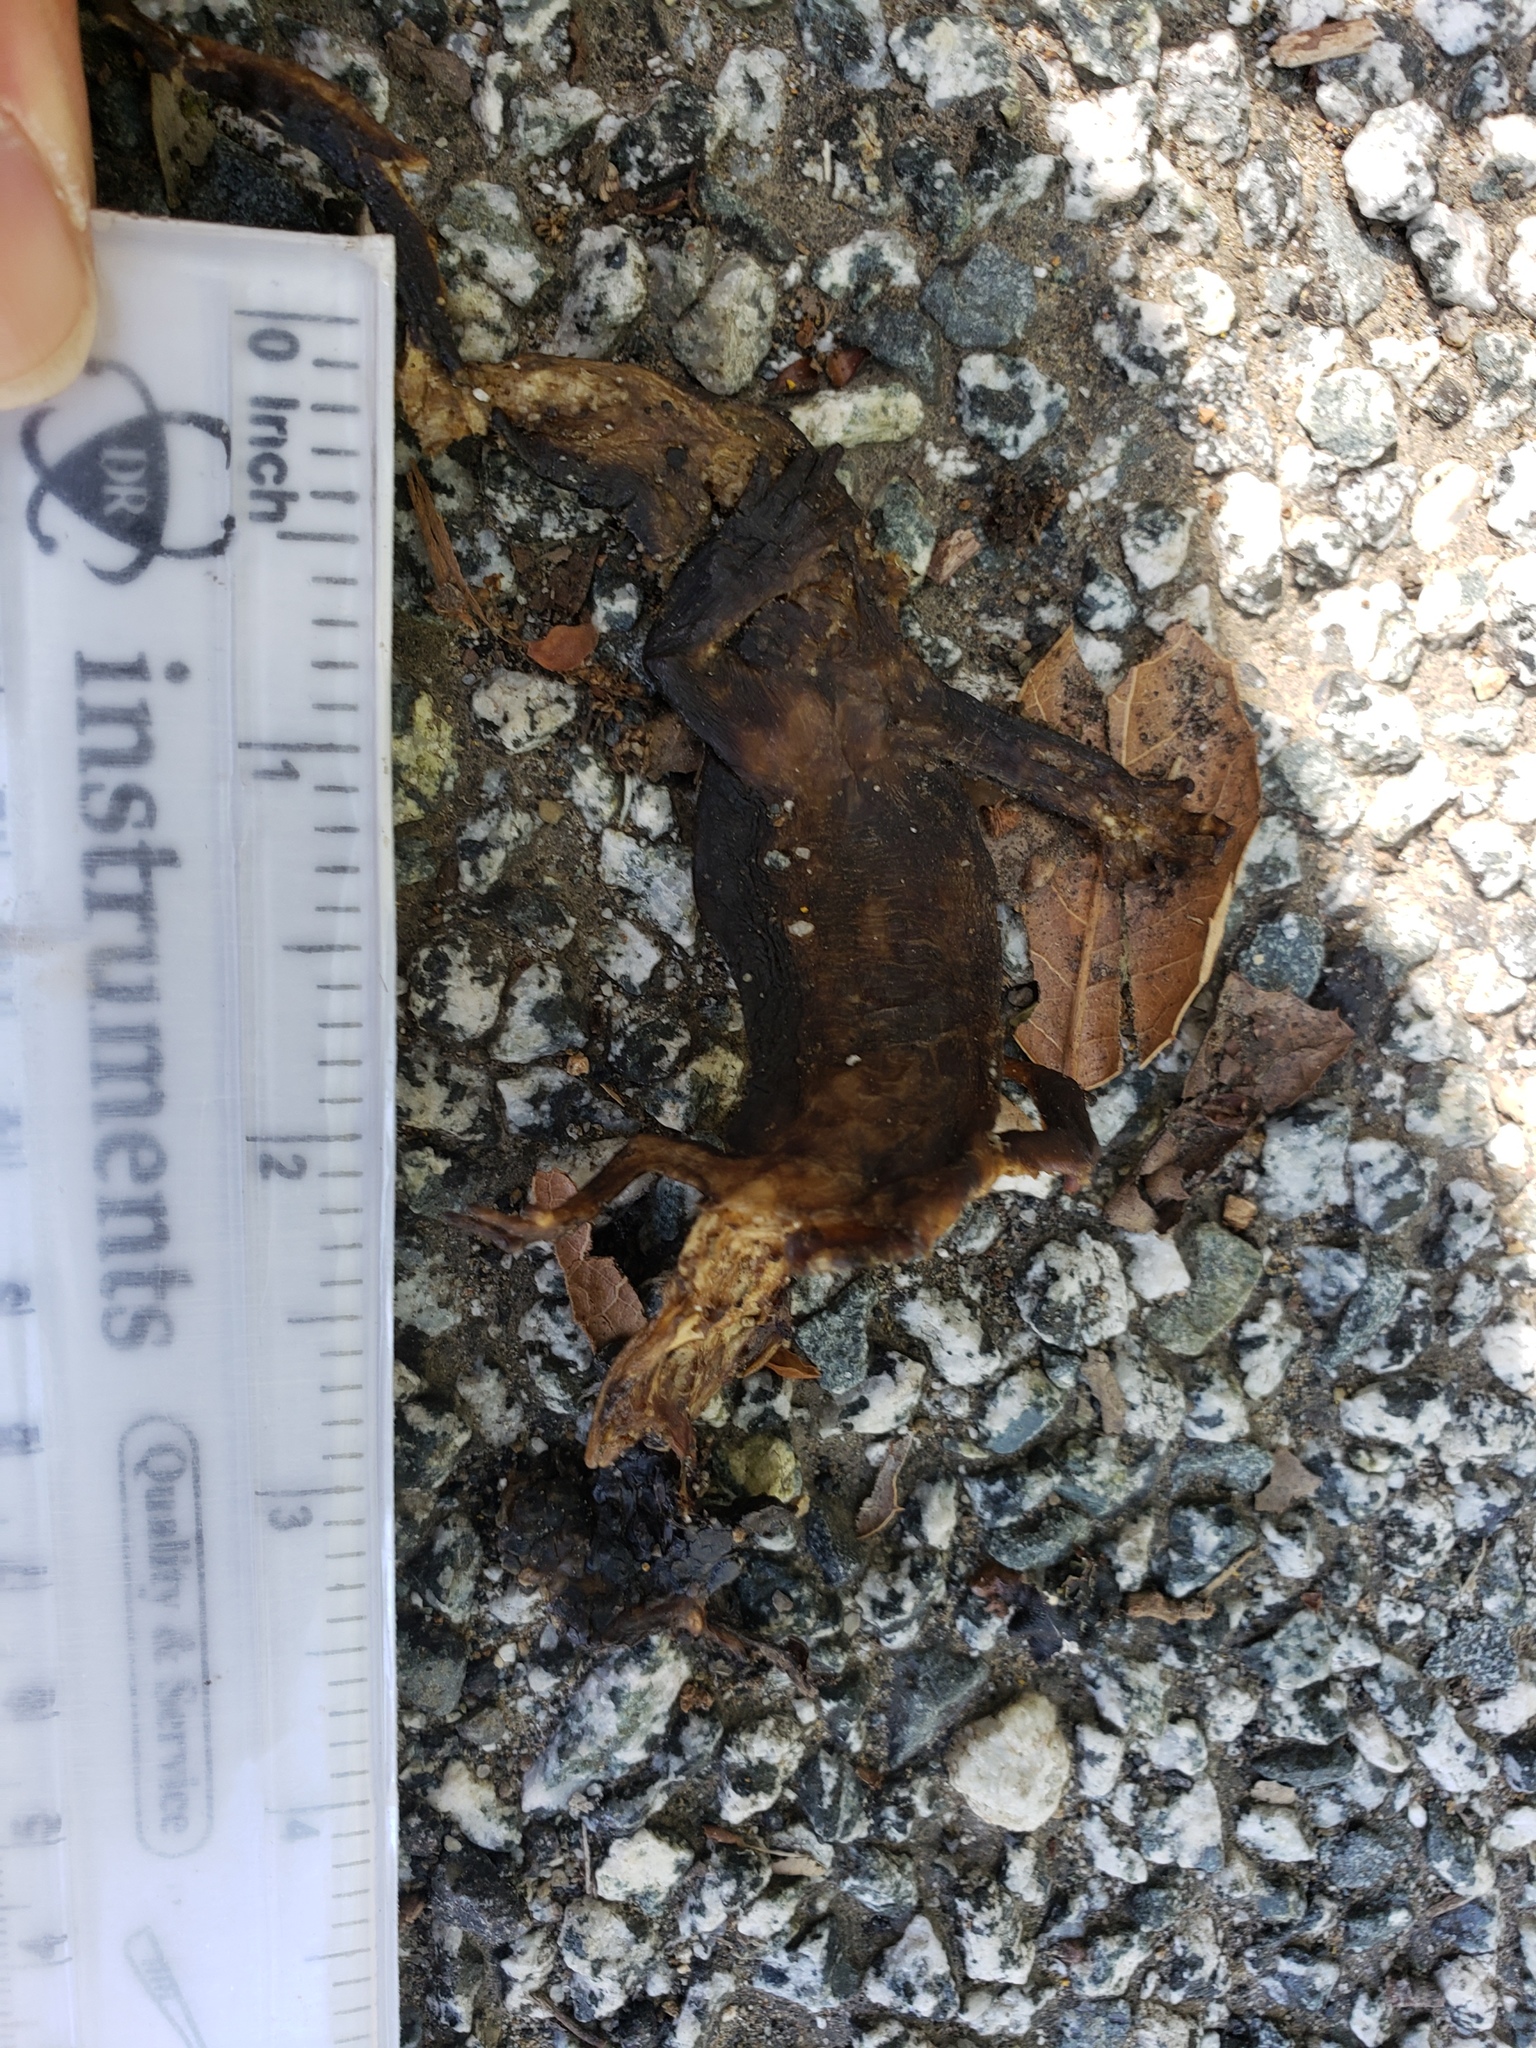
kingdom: Animalia
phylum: Chordata
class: Amphibia
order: Caudata
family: Salamandridae
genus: Taricha
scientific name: Taricha
